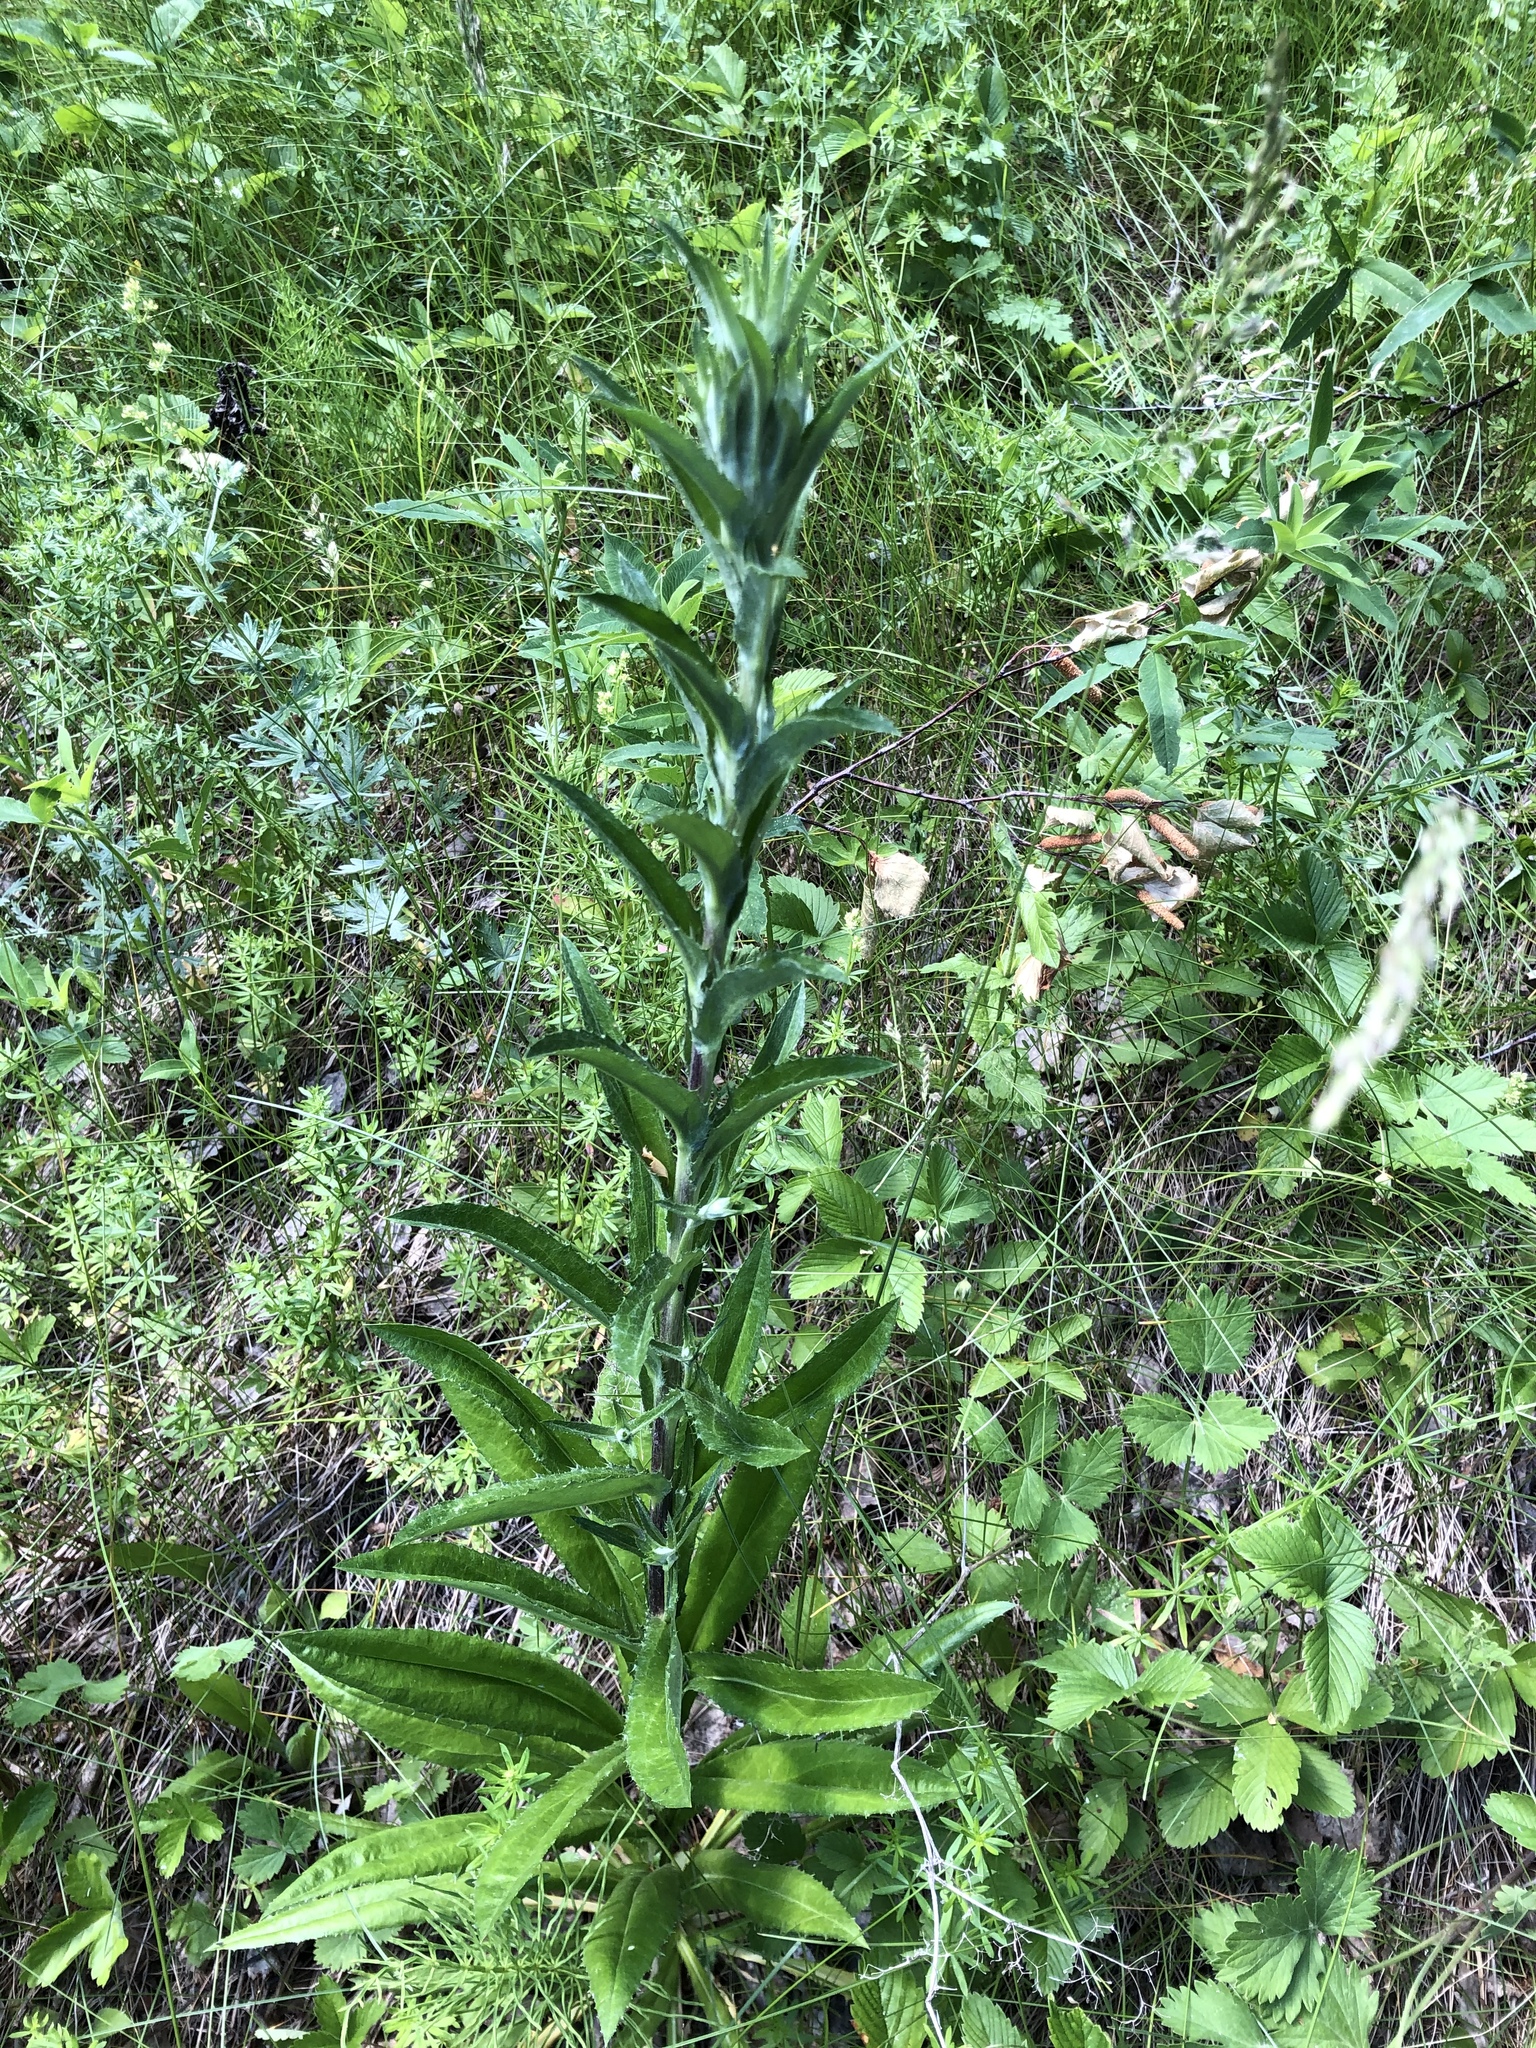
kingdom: Plantae
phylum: Tracheophyta
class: Magnoliopsida
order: Asterales
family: Asteraceae
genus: Carlina
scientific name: Carlina biebersteinii
